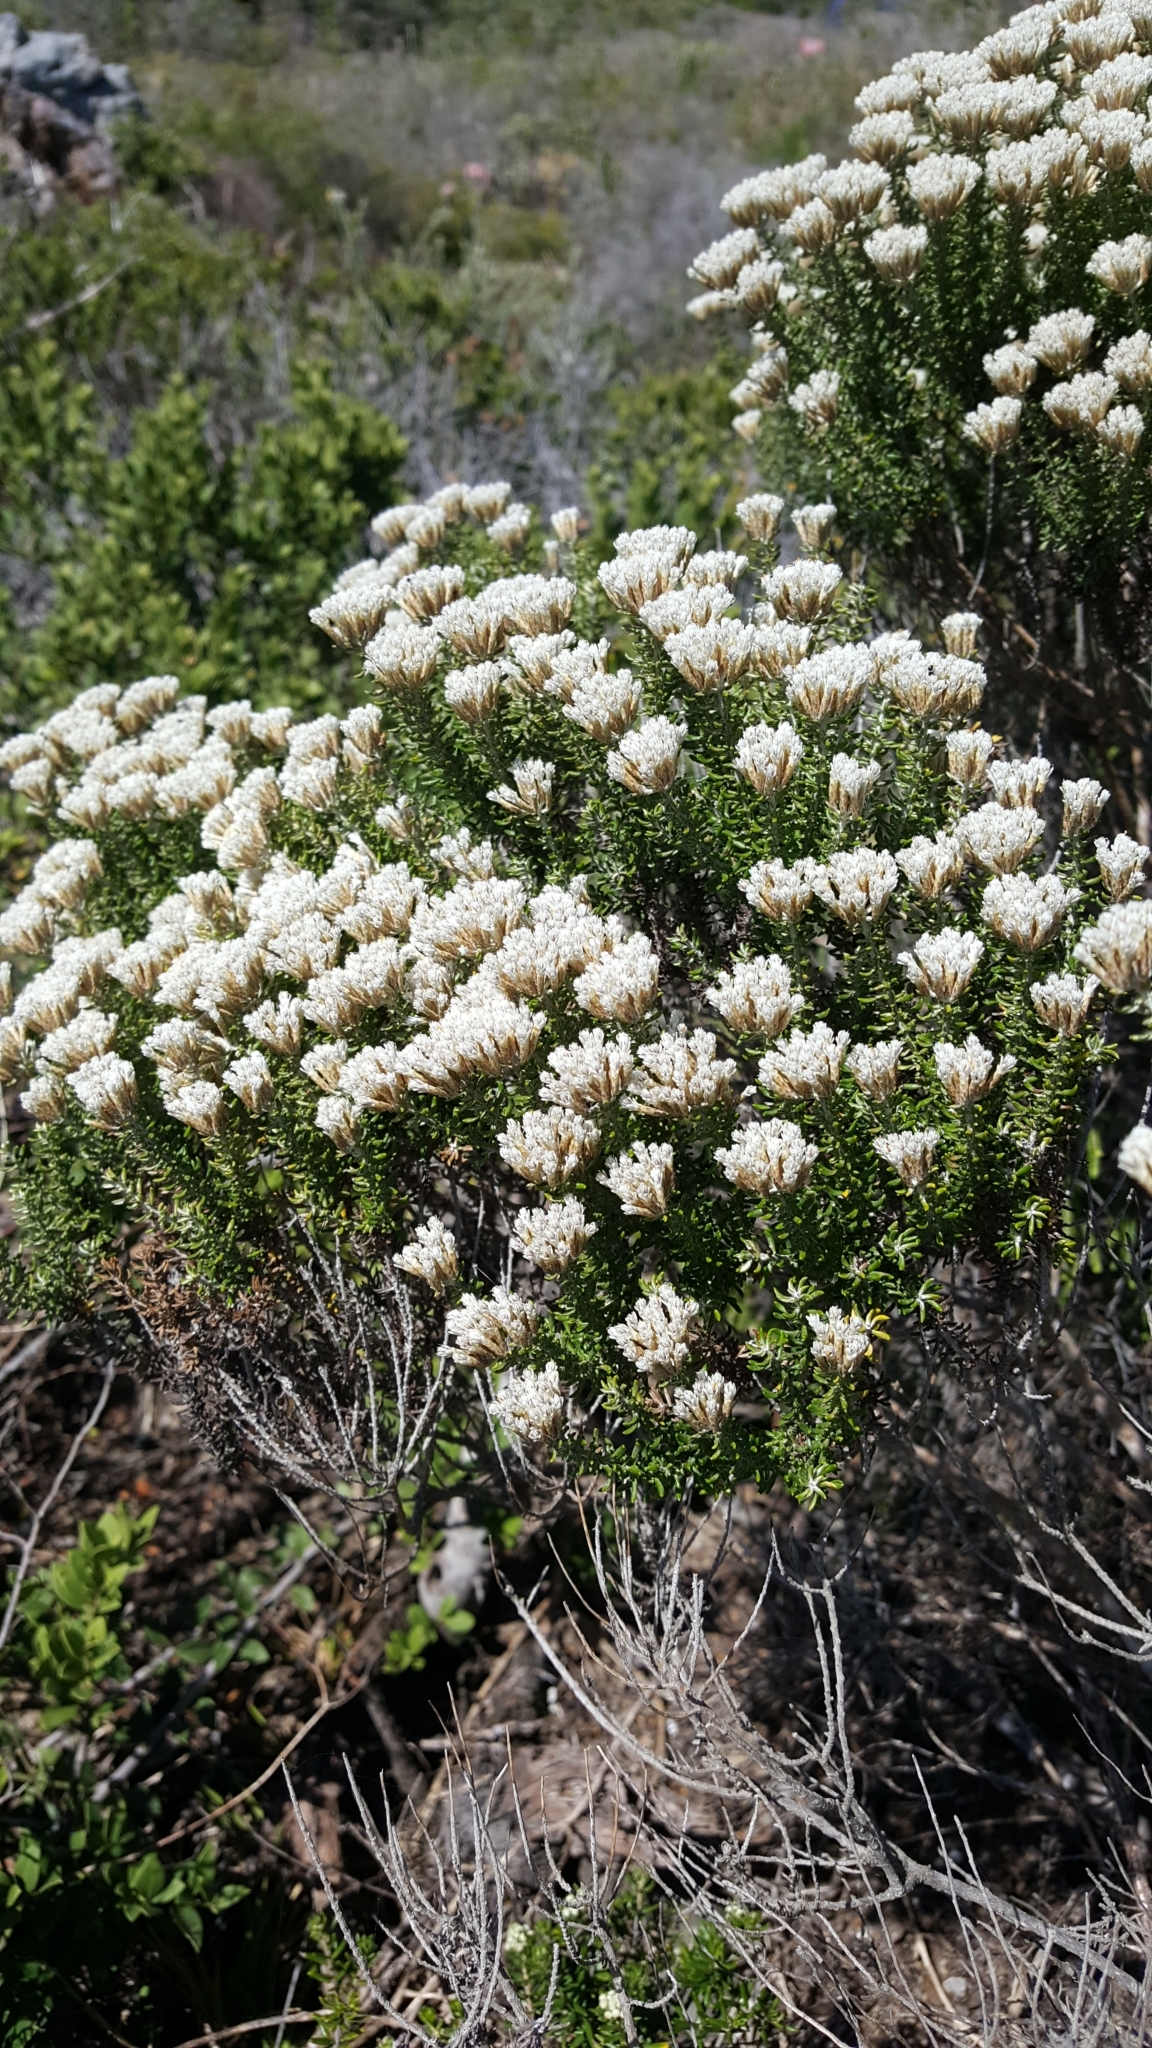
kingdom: Plantae
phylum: Tracheophyta
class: Magnoliopsida
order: Asterales
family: Asteraceae
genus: Metalasia
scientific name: Metalasia muricata
